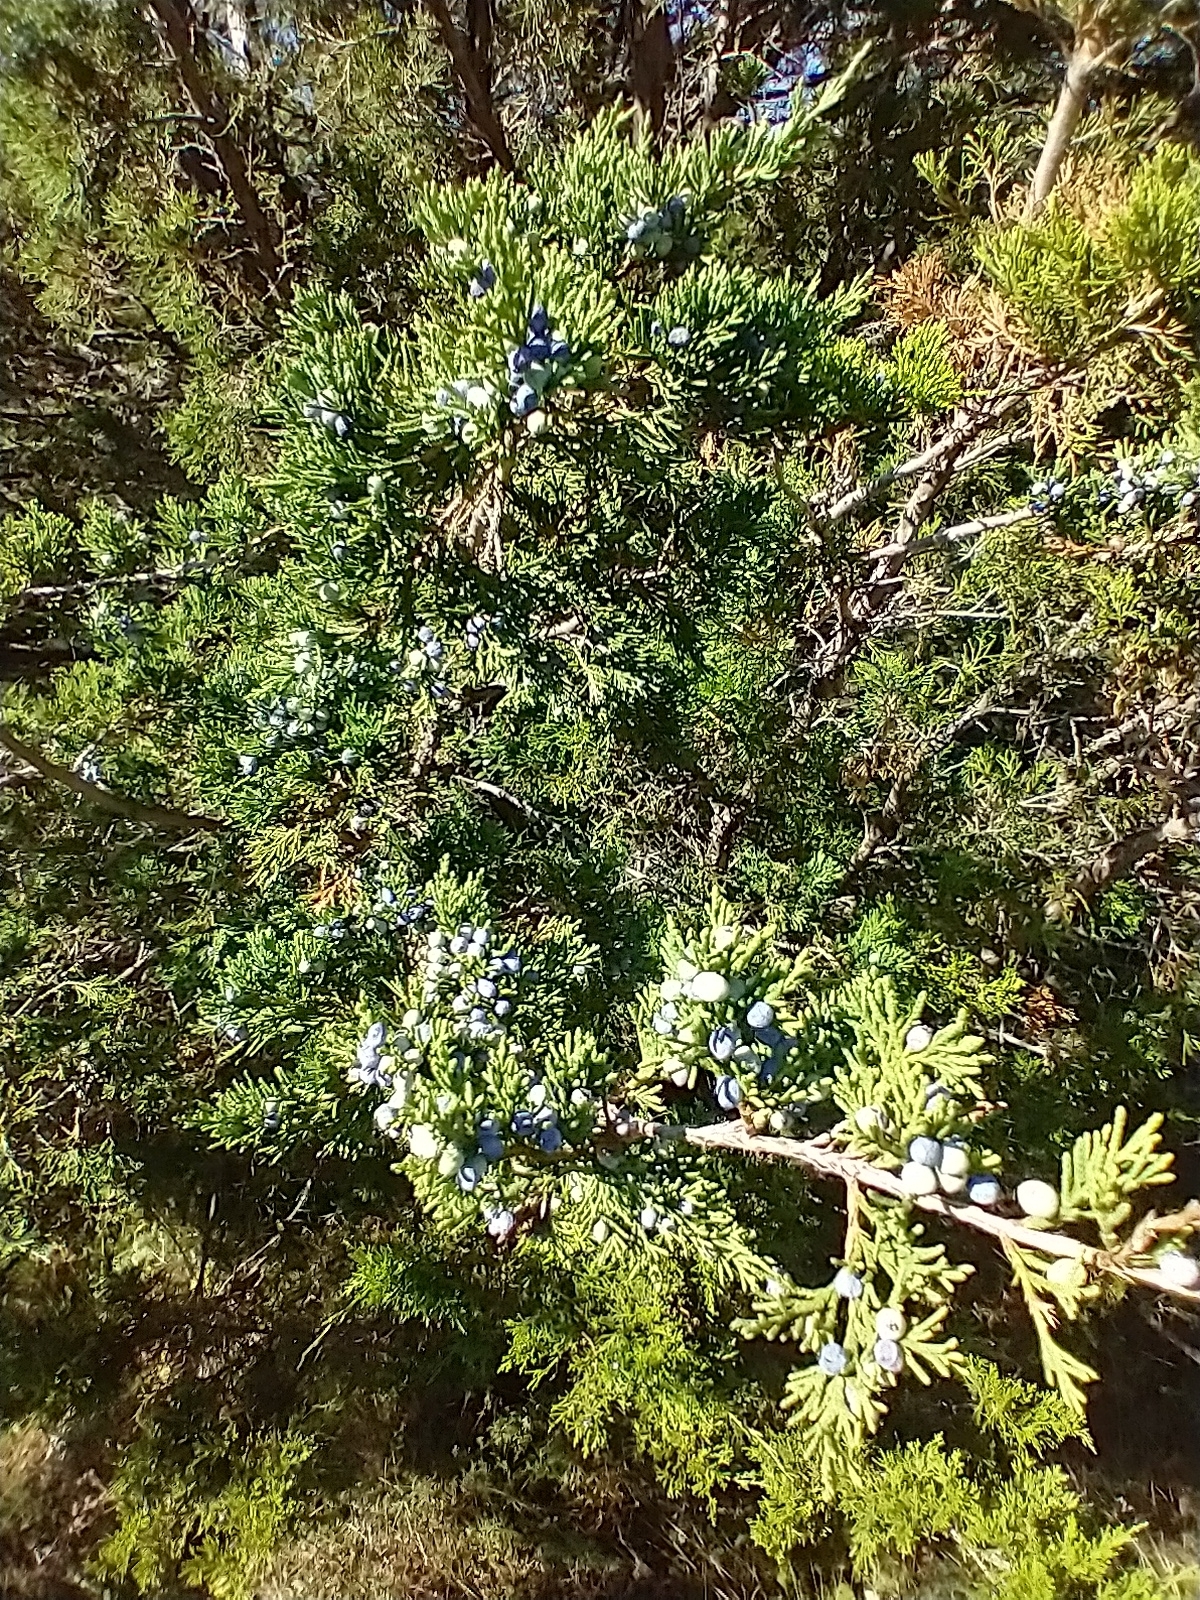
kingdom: Plantae
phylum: Tracheophyta
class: Pinopsida
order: Pinales
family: Cupressaceae
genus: Juniperus
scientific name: Juniperus virginiana
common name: Red juniper
